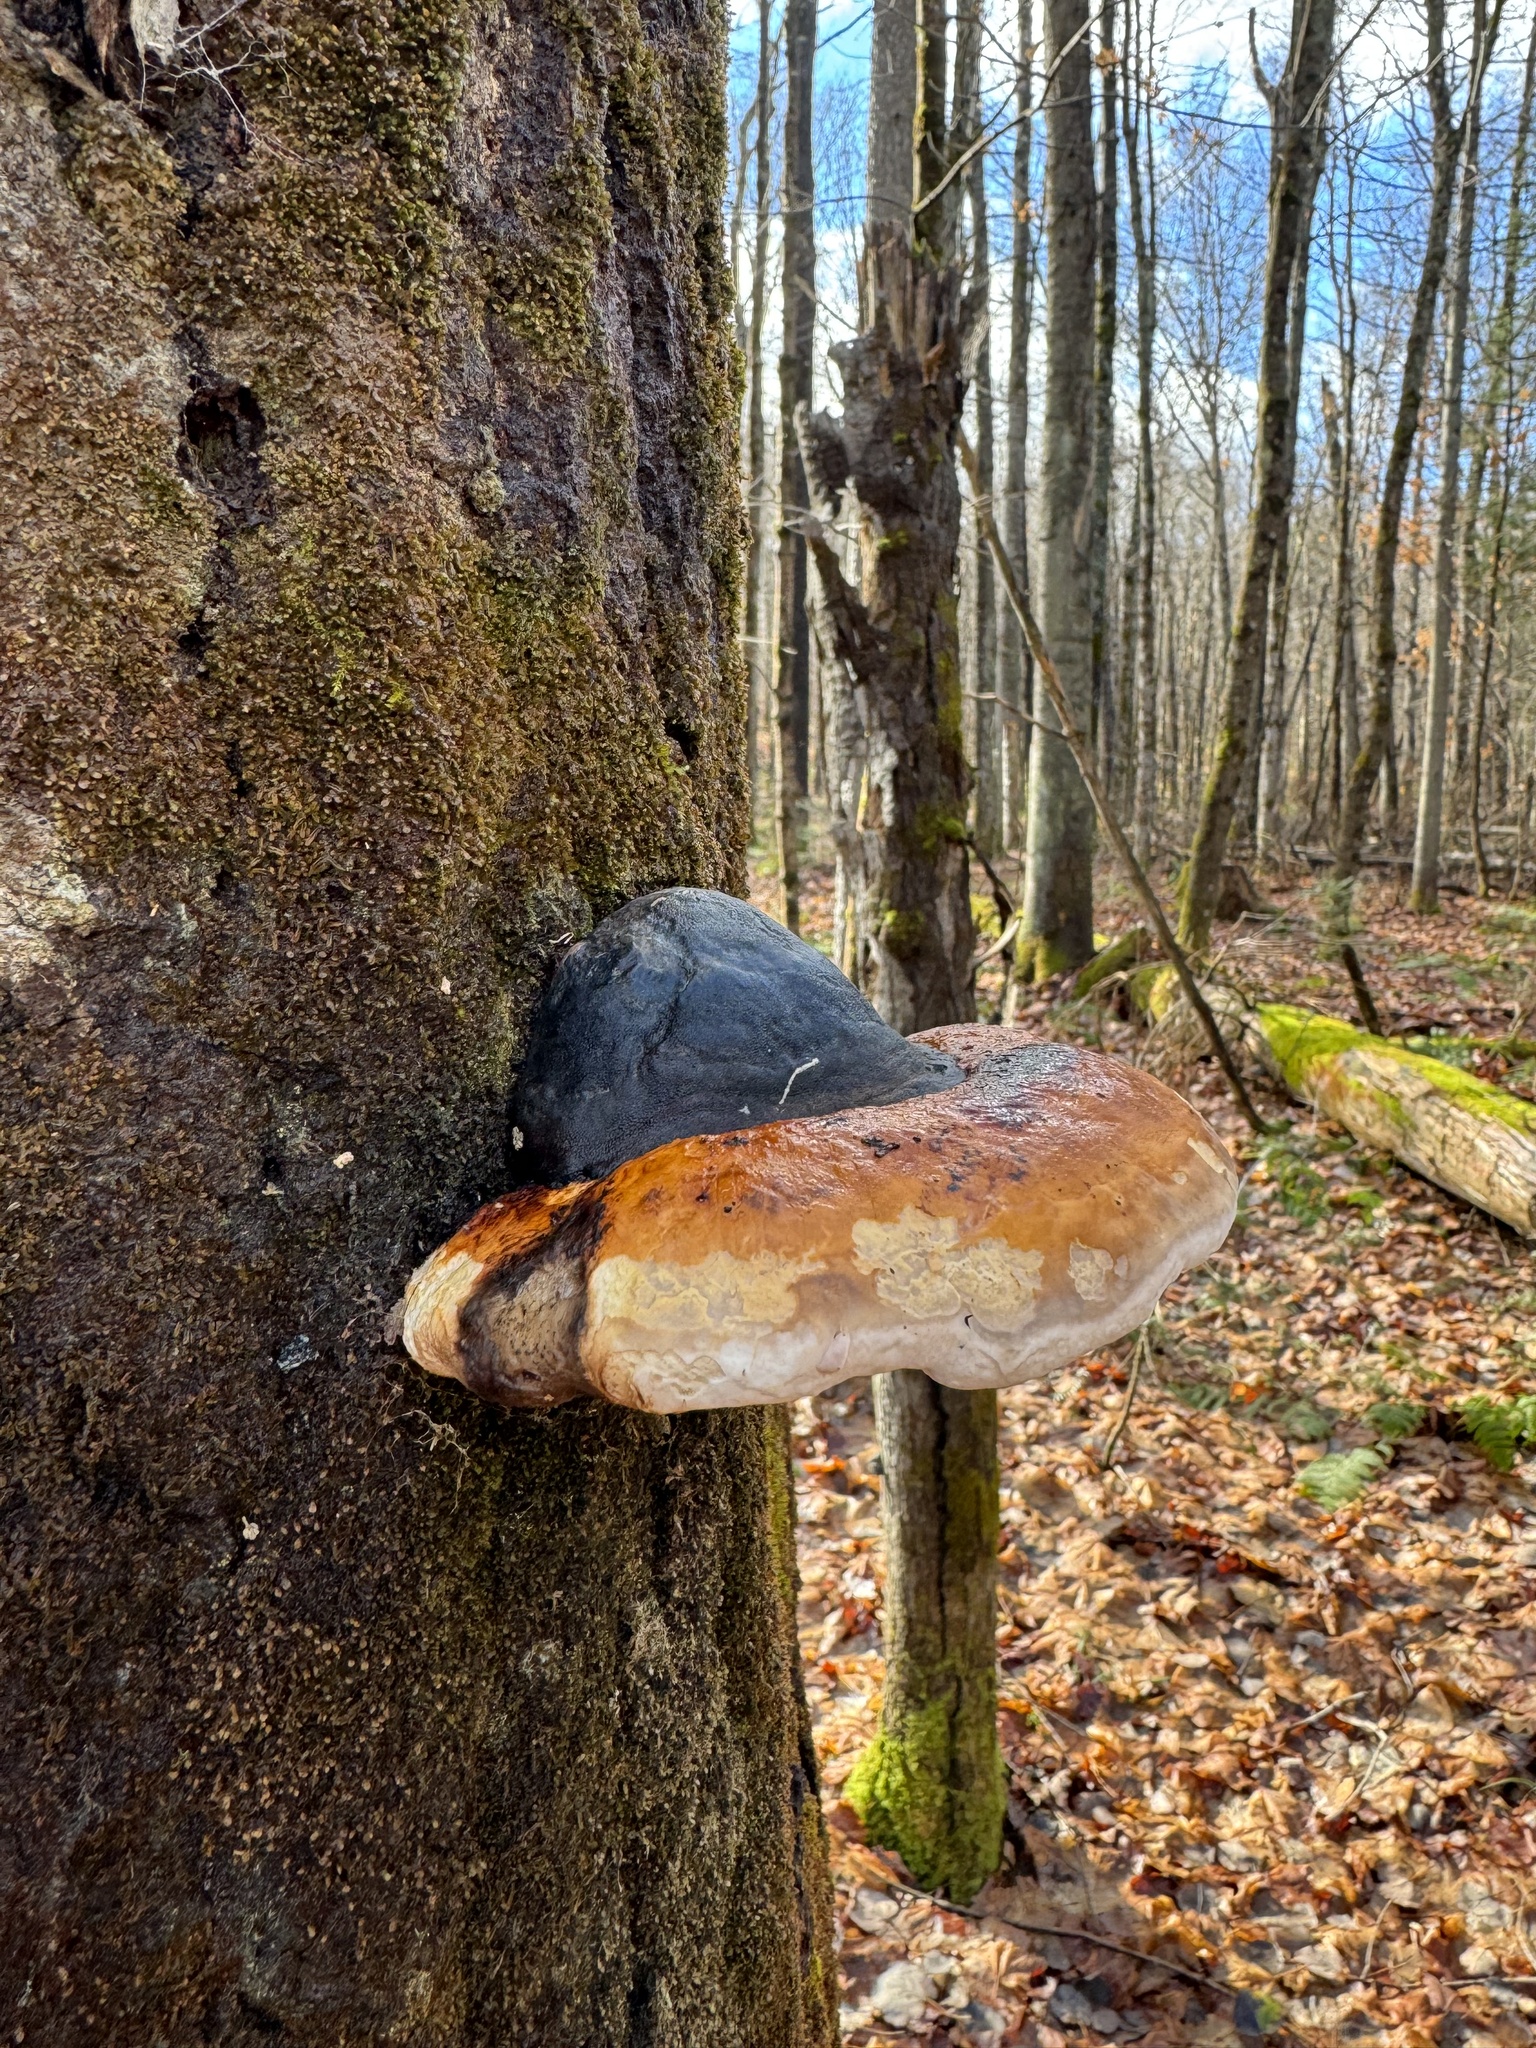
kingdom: Fungi
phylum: Basidiomycota
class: Agaricomycetes
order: Polyporales
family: Fomitopsidaceae
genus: Fomitopsis
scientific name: Fomitopsis mounceae
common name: Northern red belt
